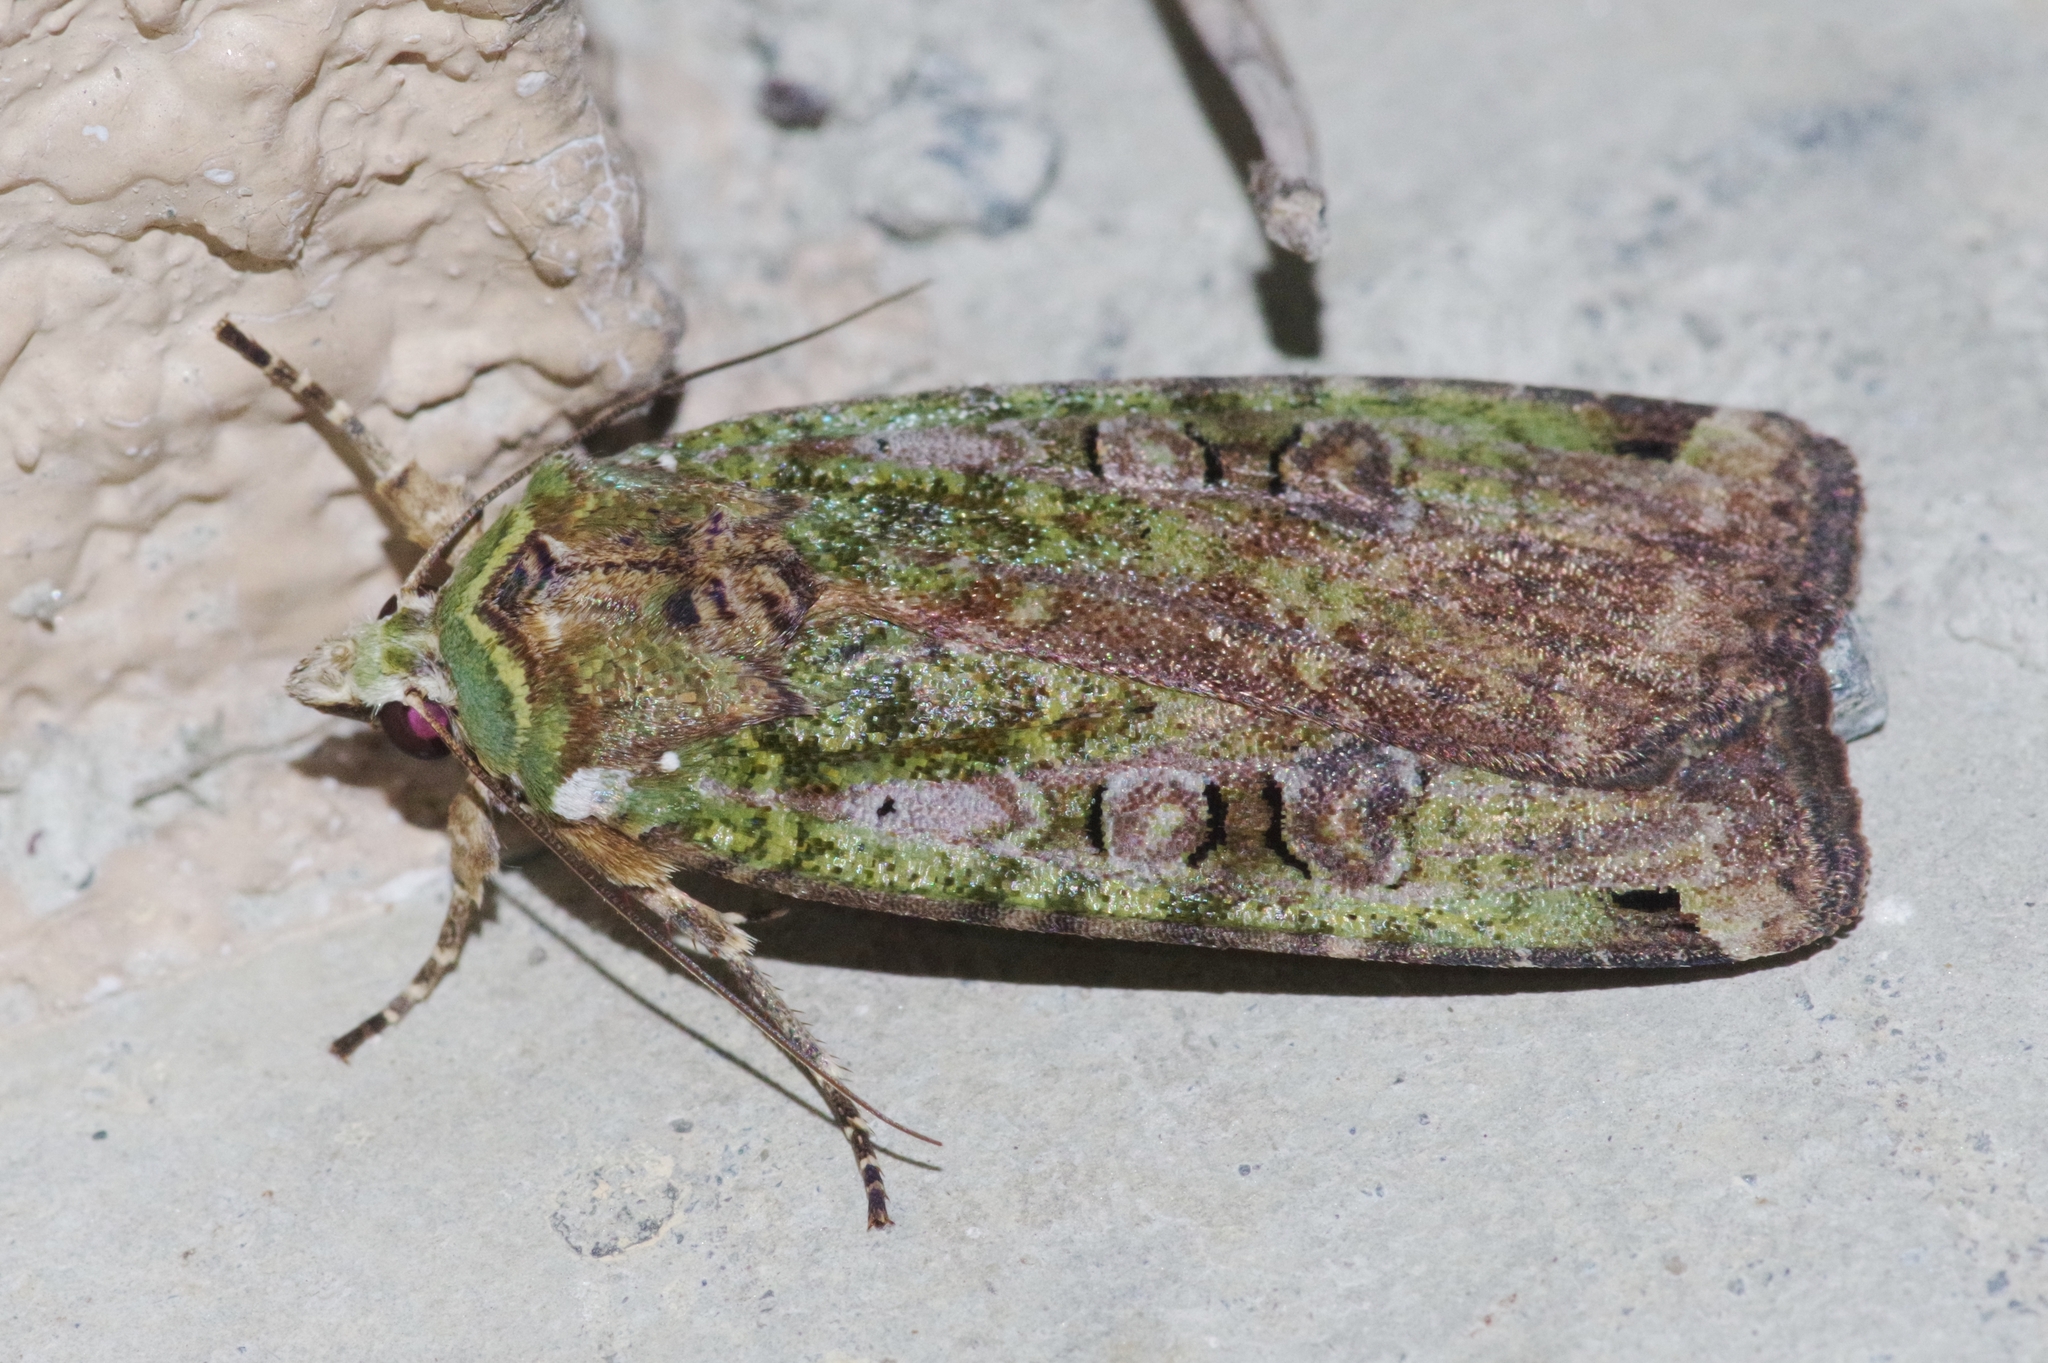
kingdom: Animalia
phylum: Arthropoda
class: Insecta
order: Lepidoptera
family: Noctuidae
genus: Xestia
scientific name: Xestia semiherbida
